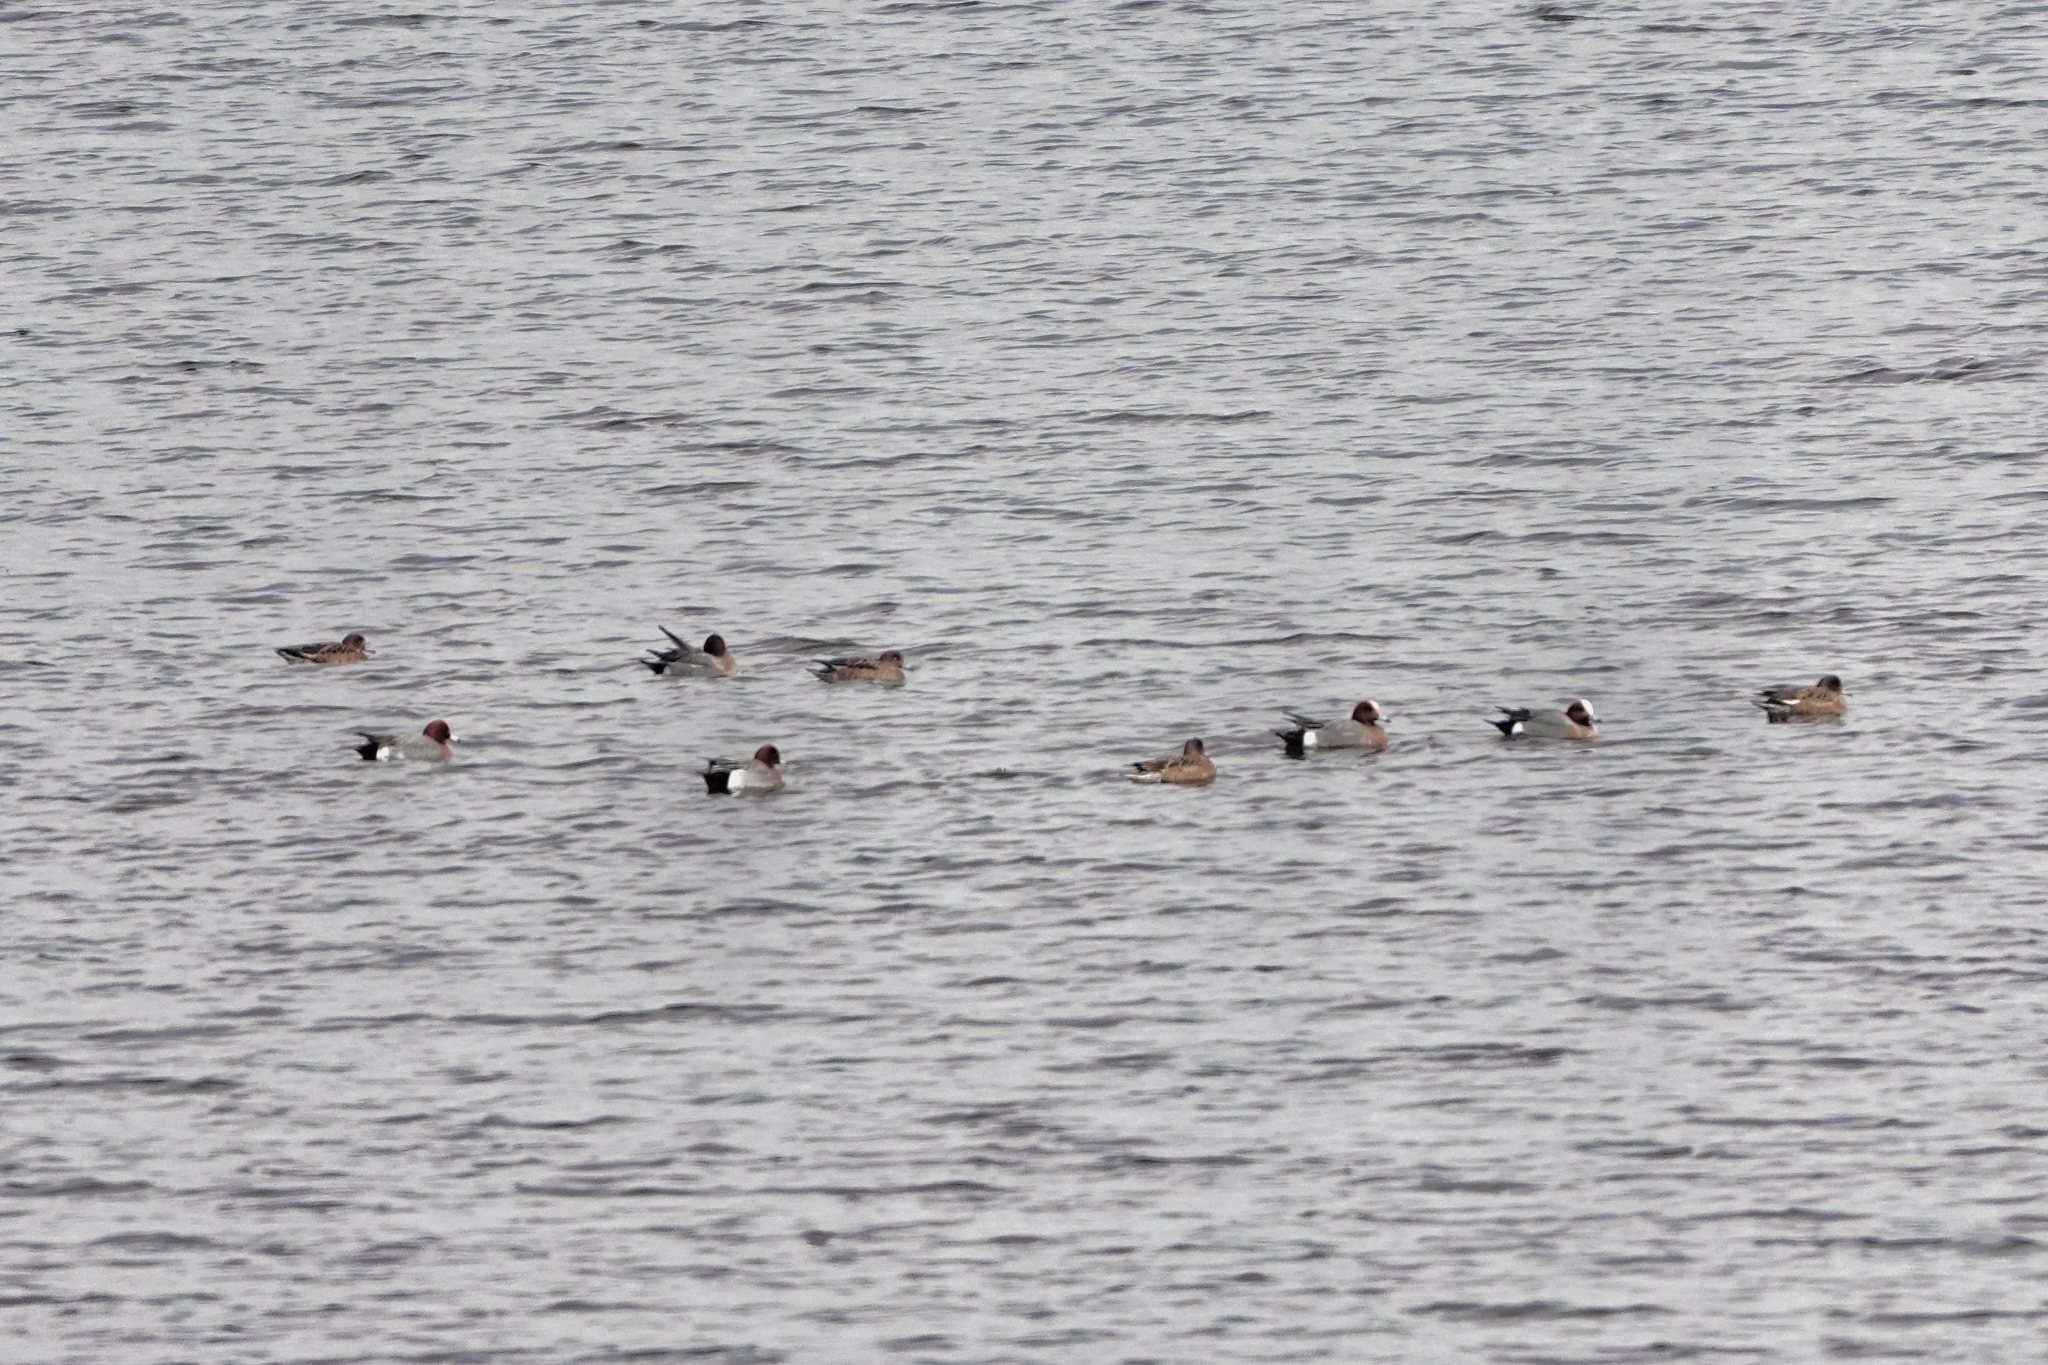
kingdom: Animalia
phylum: Chordata
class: Aves
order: Anseriformes
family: Anatidae
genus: Mareca
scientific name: Mareca penelope
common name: Eurasian wigeon
